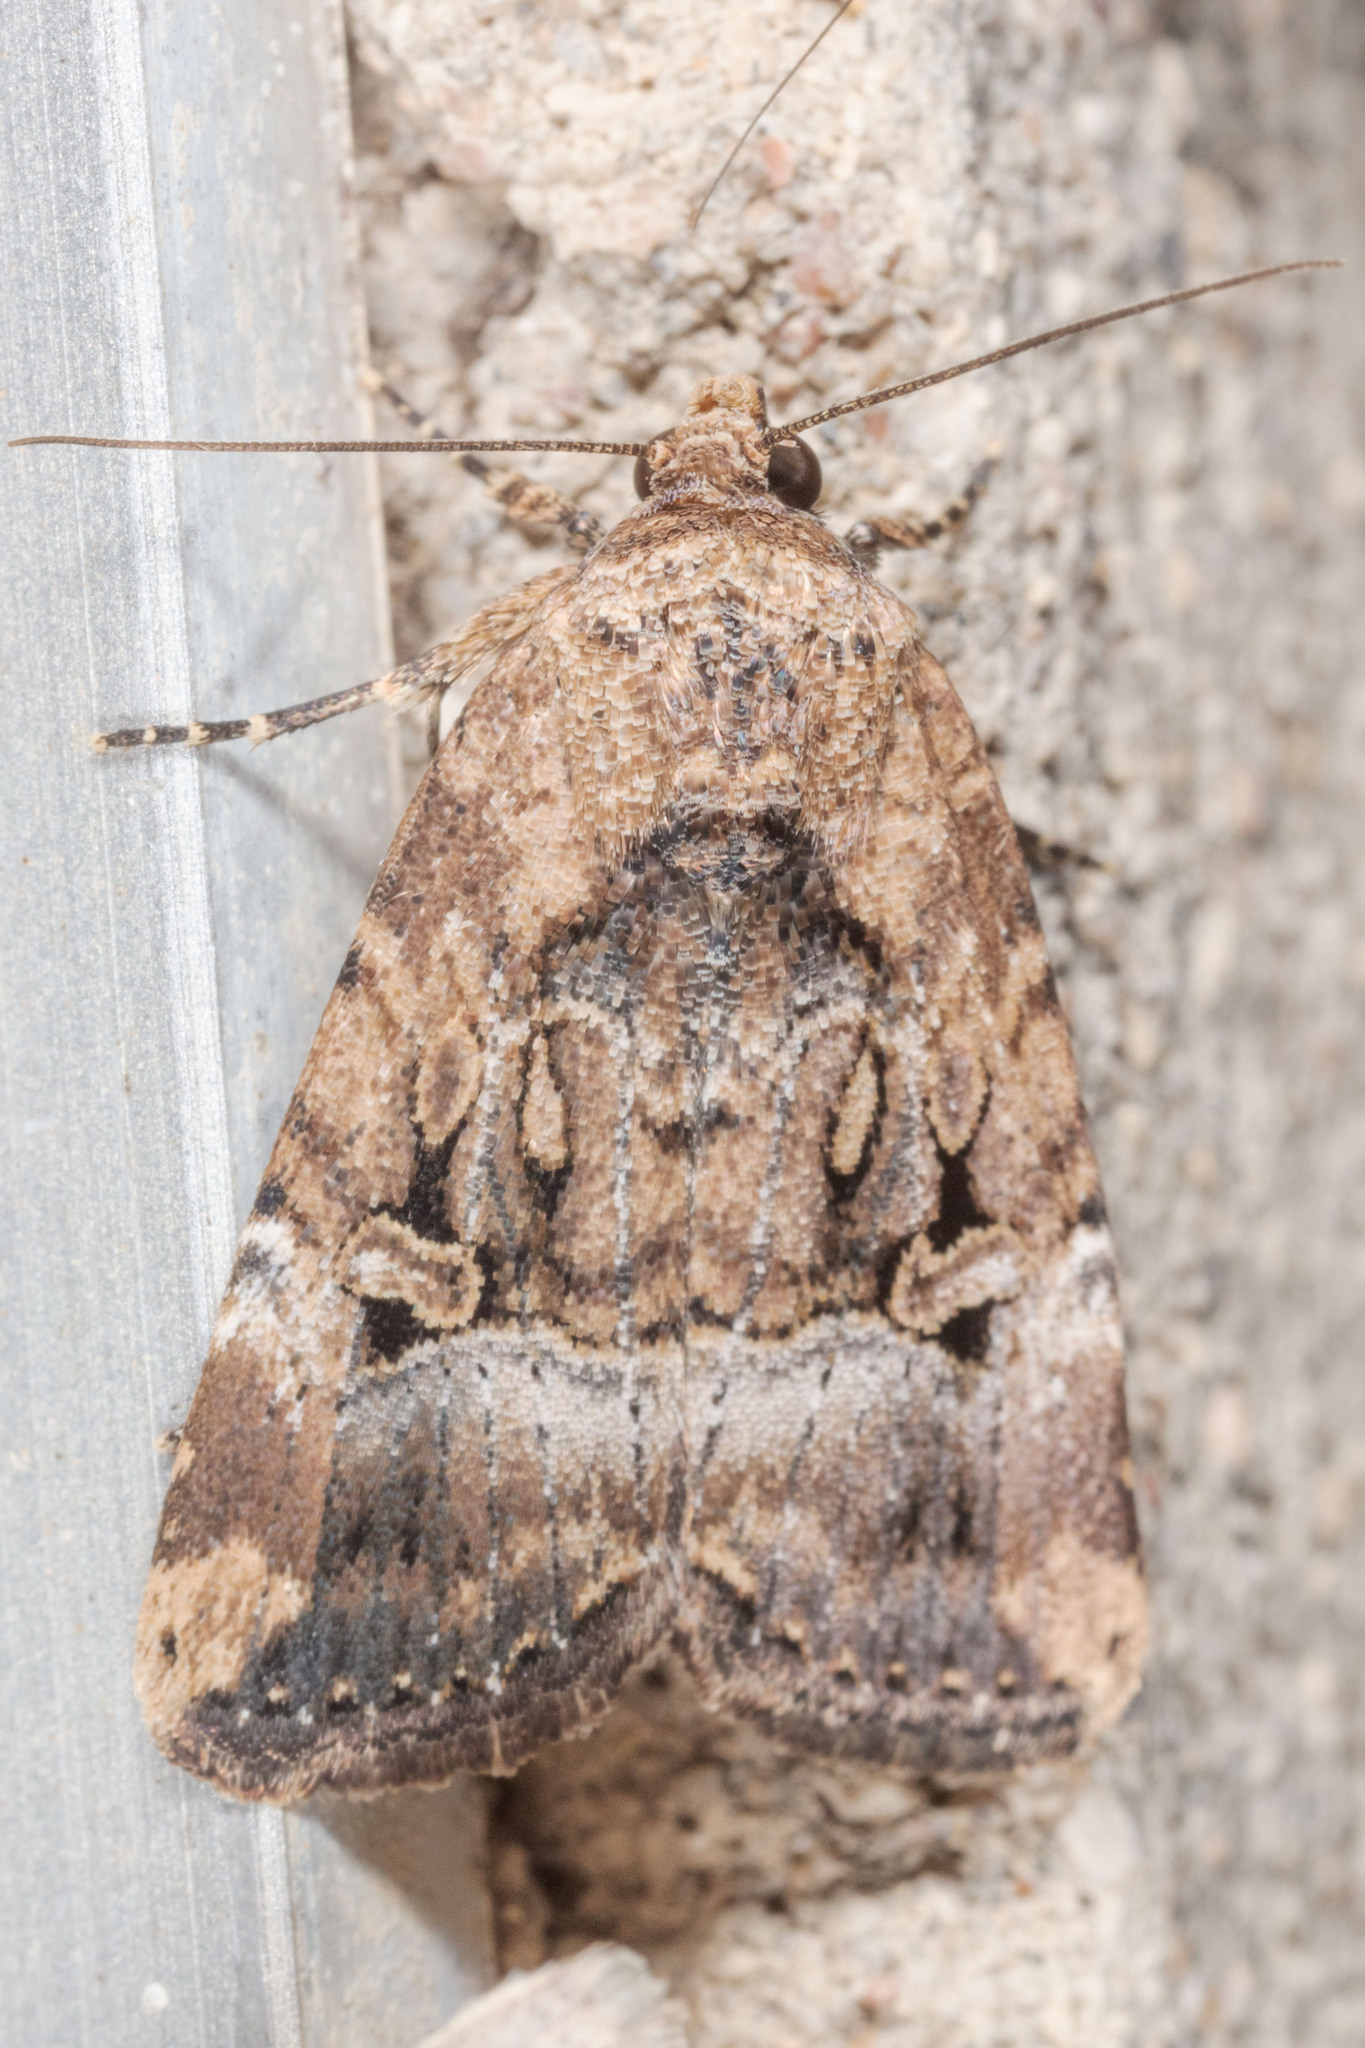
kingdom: Animalia
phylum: Arthropoda
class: Insecta
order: Lepidoptera
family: Noctuidae
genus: Elaphria
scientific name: Elaphria chalcedonia
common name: Chalcedony midget
